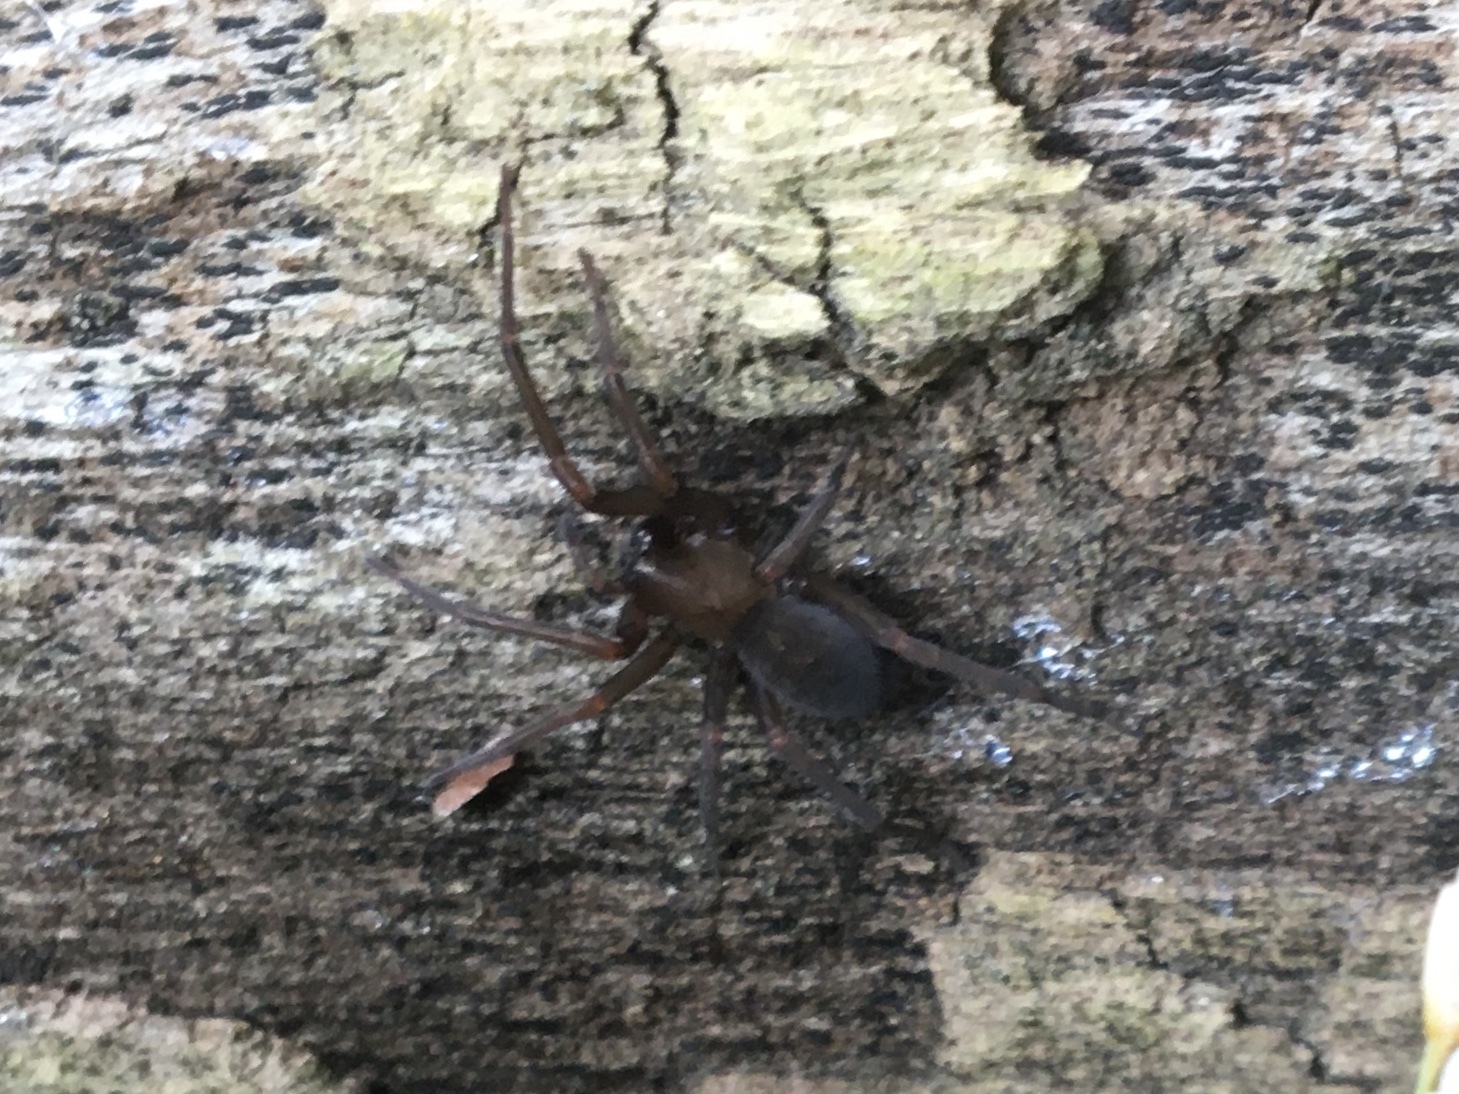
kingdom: Animalia
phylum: Arthropoda
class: Arachnida
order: Araneae
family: Desidae
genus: Metaltella
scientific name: Metaltella simoni
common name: Cribellate spider
